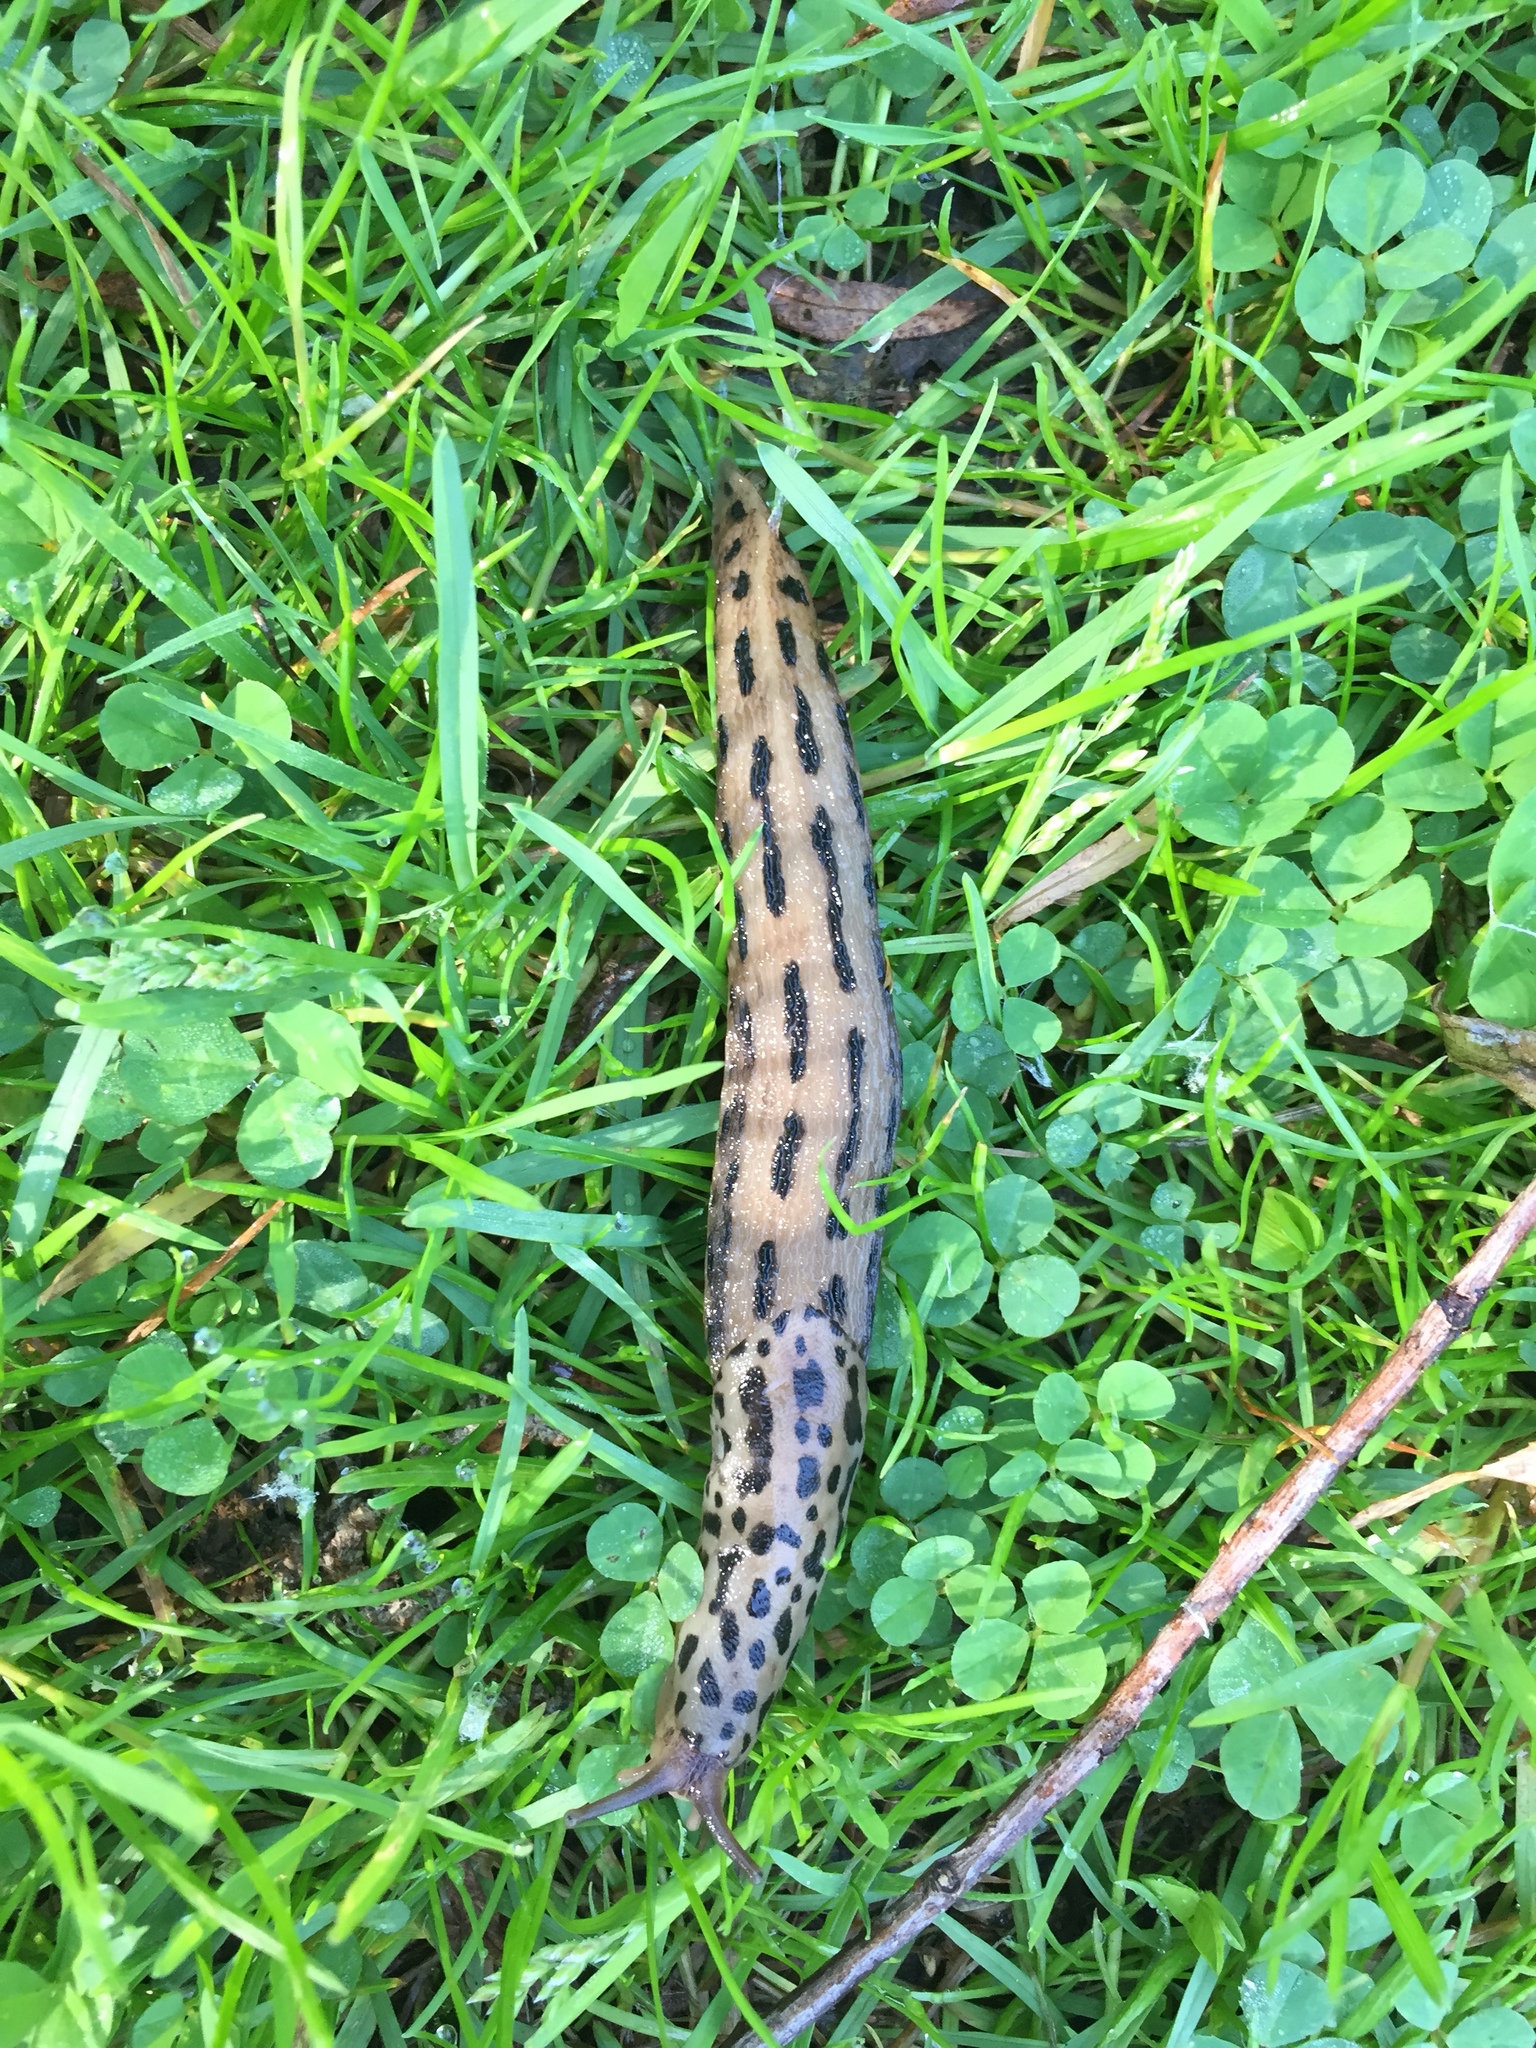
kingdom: Animalia
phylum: Mollusca
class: Gastropoda
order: Stylommatophora
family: Limacidae
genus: Limax
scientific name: Limax maximus
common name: Great grey slug
